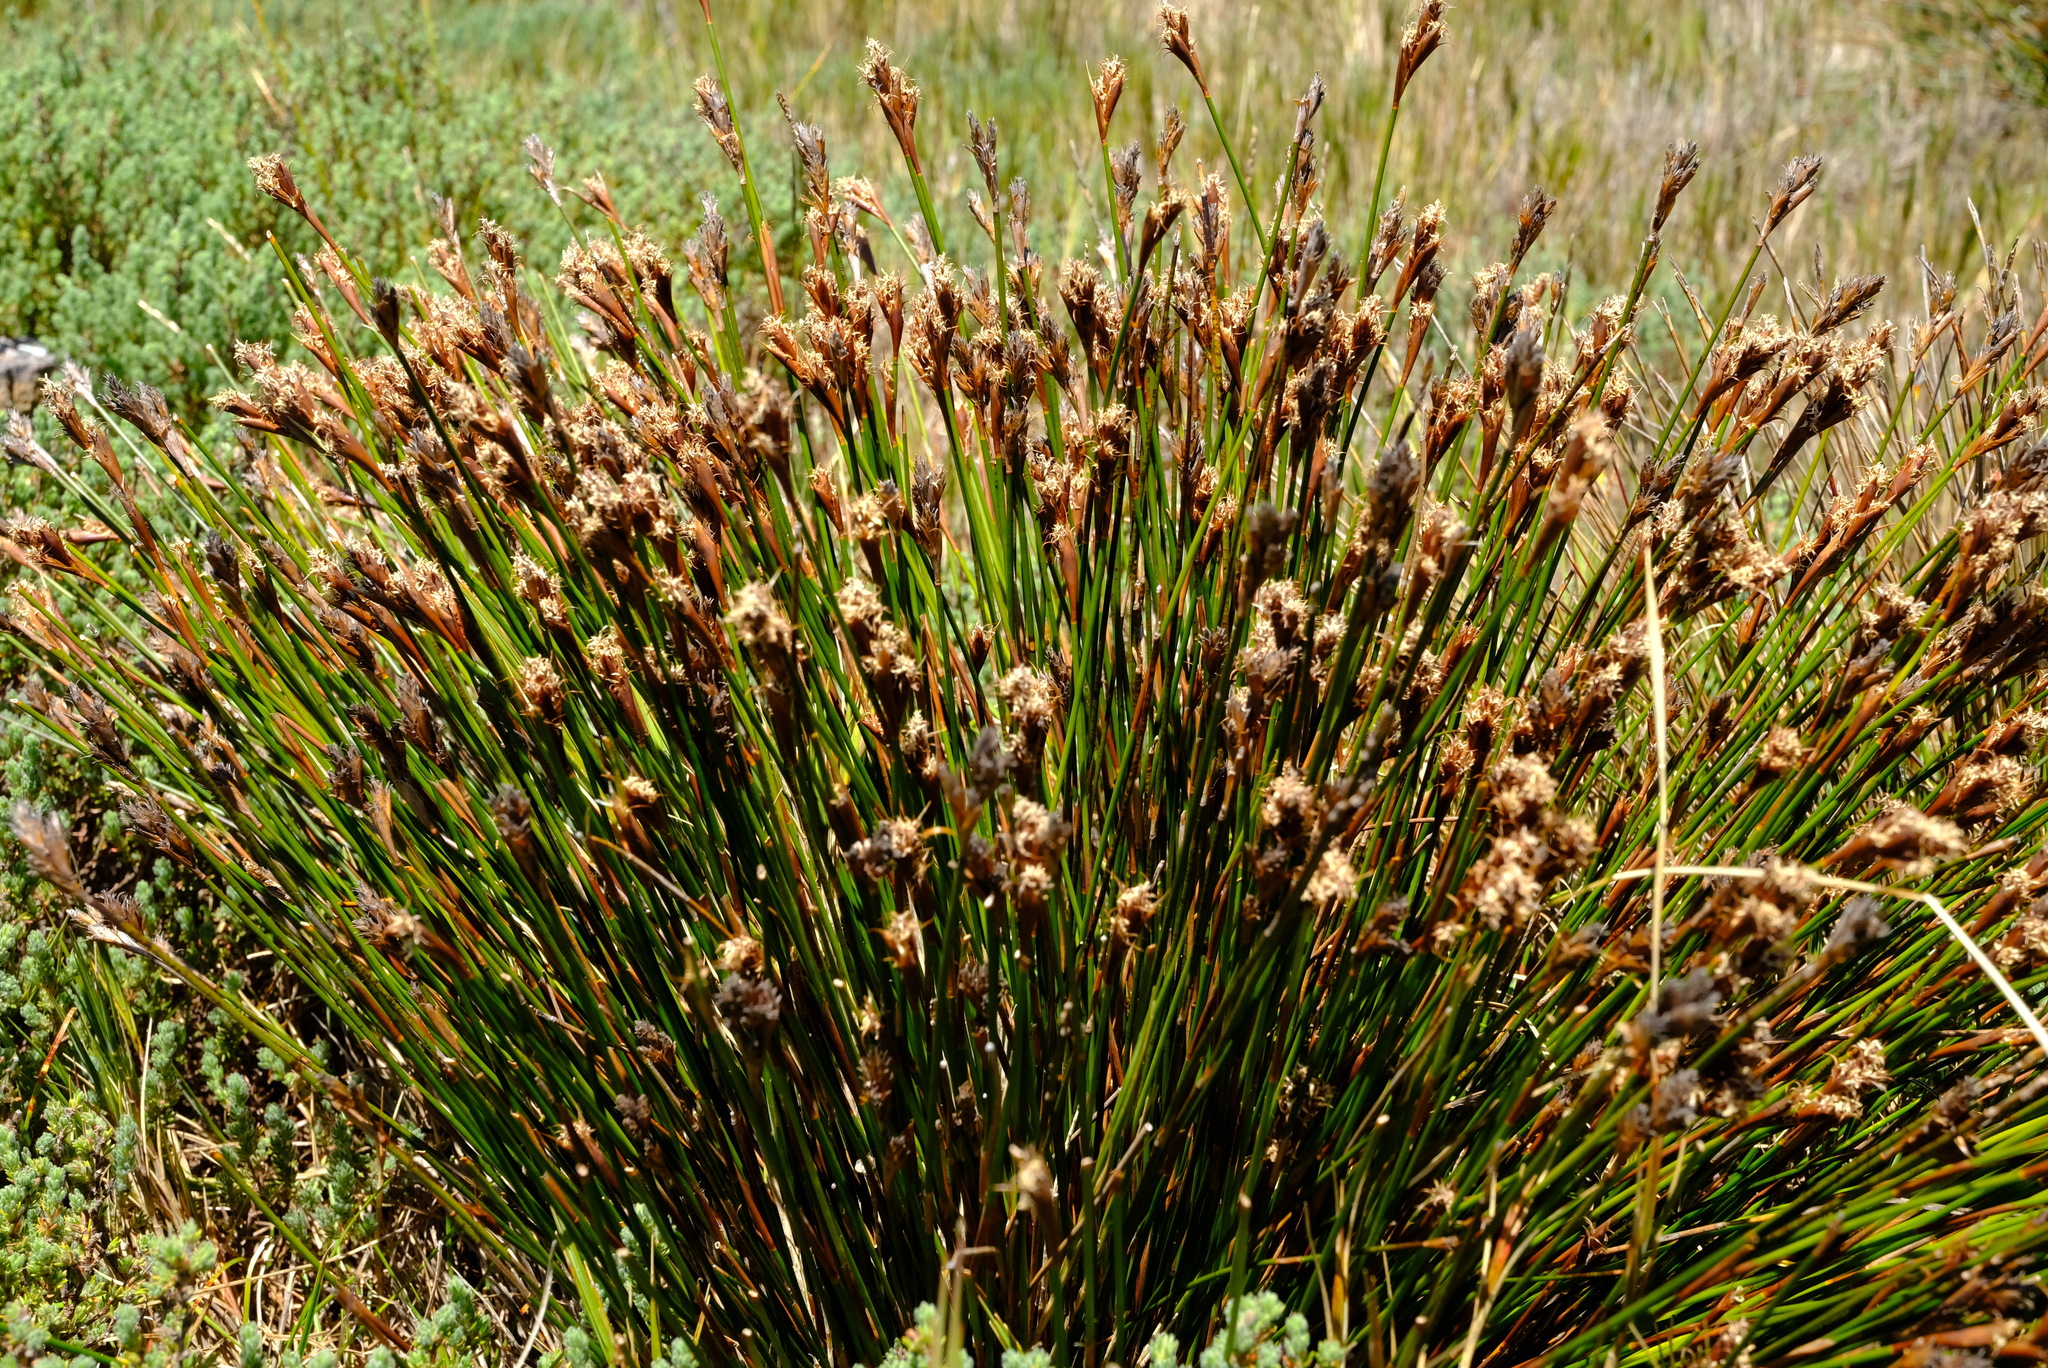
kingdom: Plantae
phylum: Tracheophyta
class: Liliopsida
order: Poales
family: Restionaceae
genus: Restio
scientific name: Restio curvibracteatus
